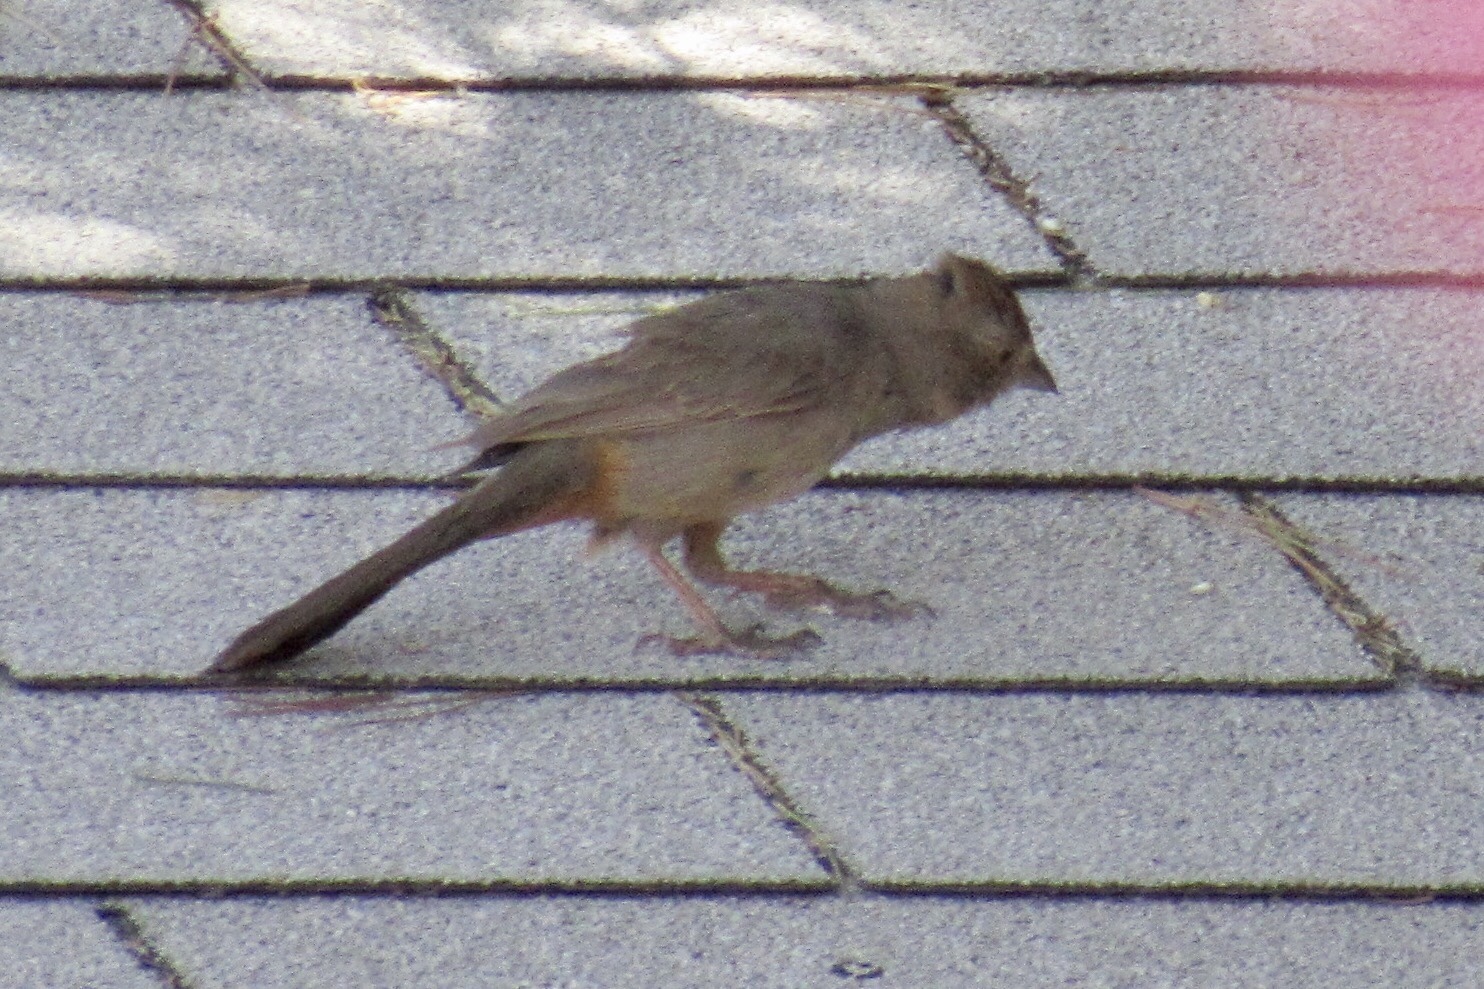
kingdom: Animalia
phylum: Chordata
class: Aves
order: Passeriformes
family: Passerellidae
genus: Melozone
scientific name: Melozone fusca
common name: Canyon towhee
